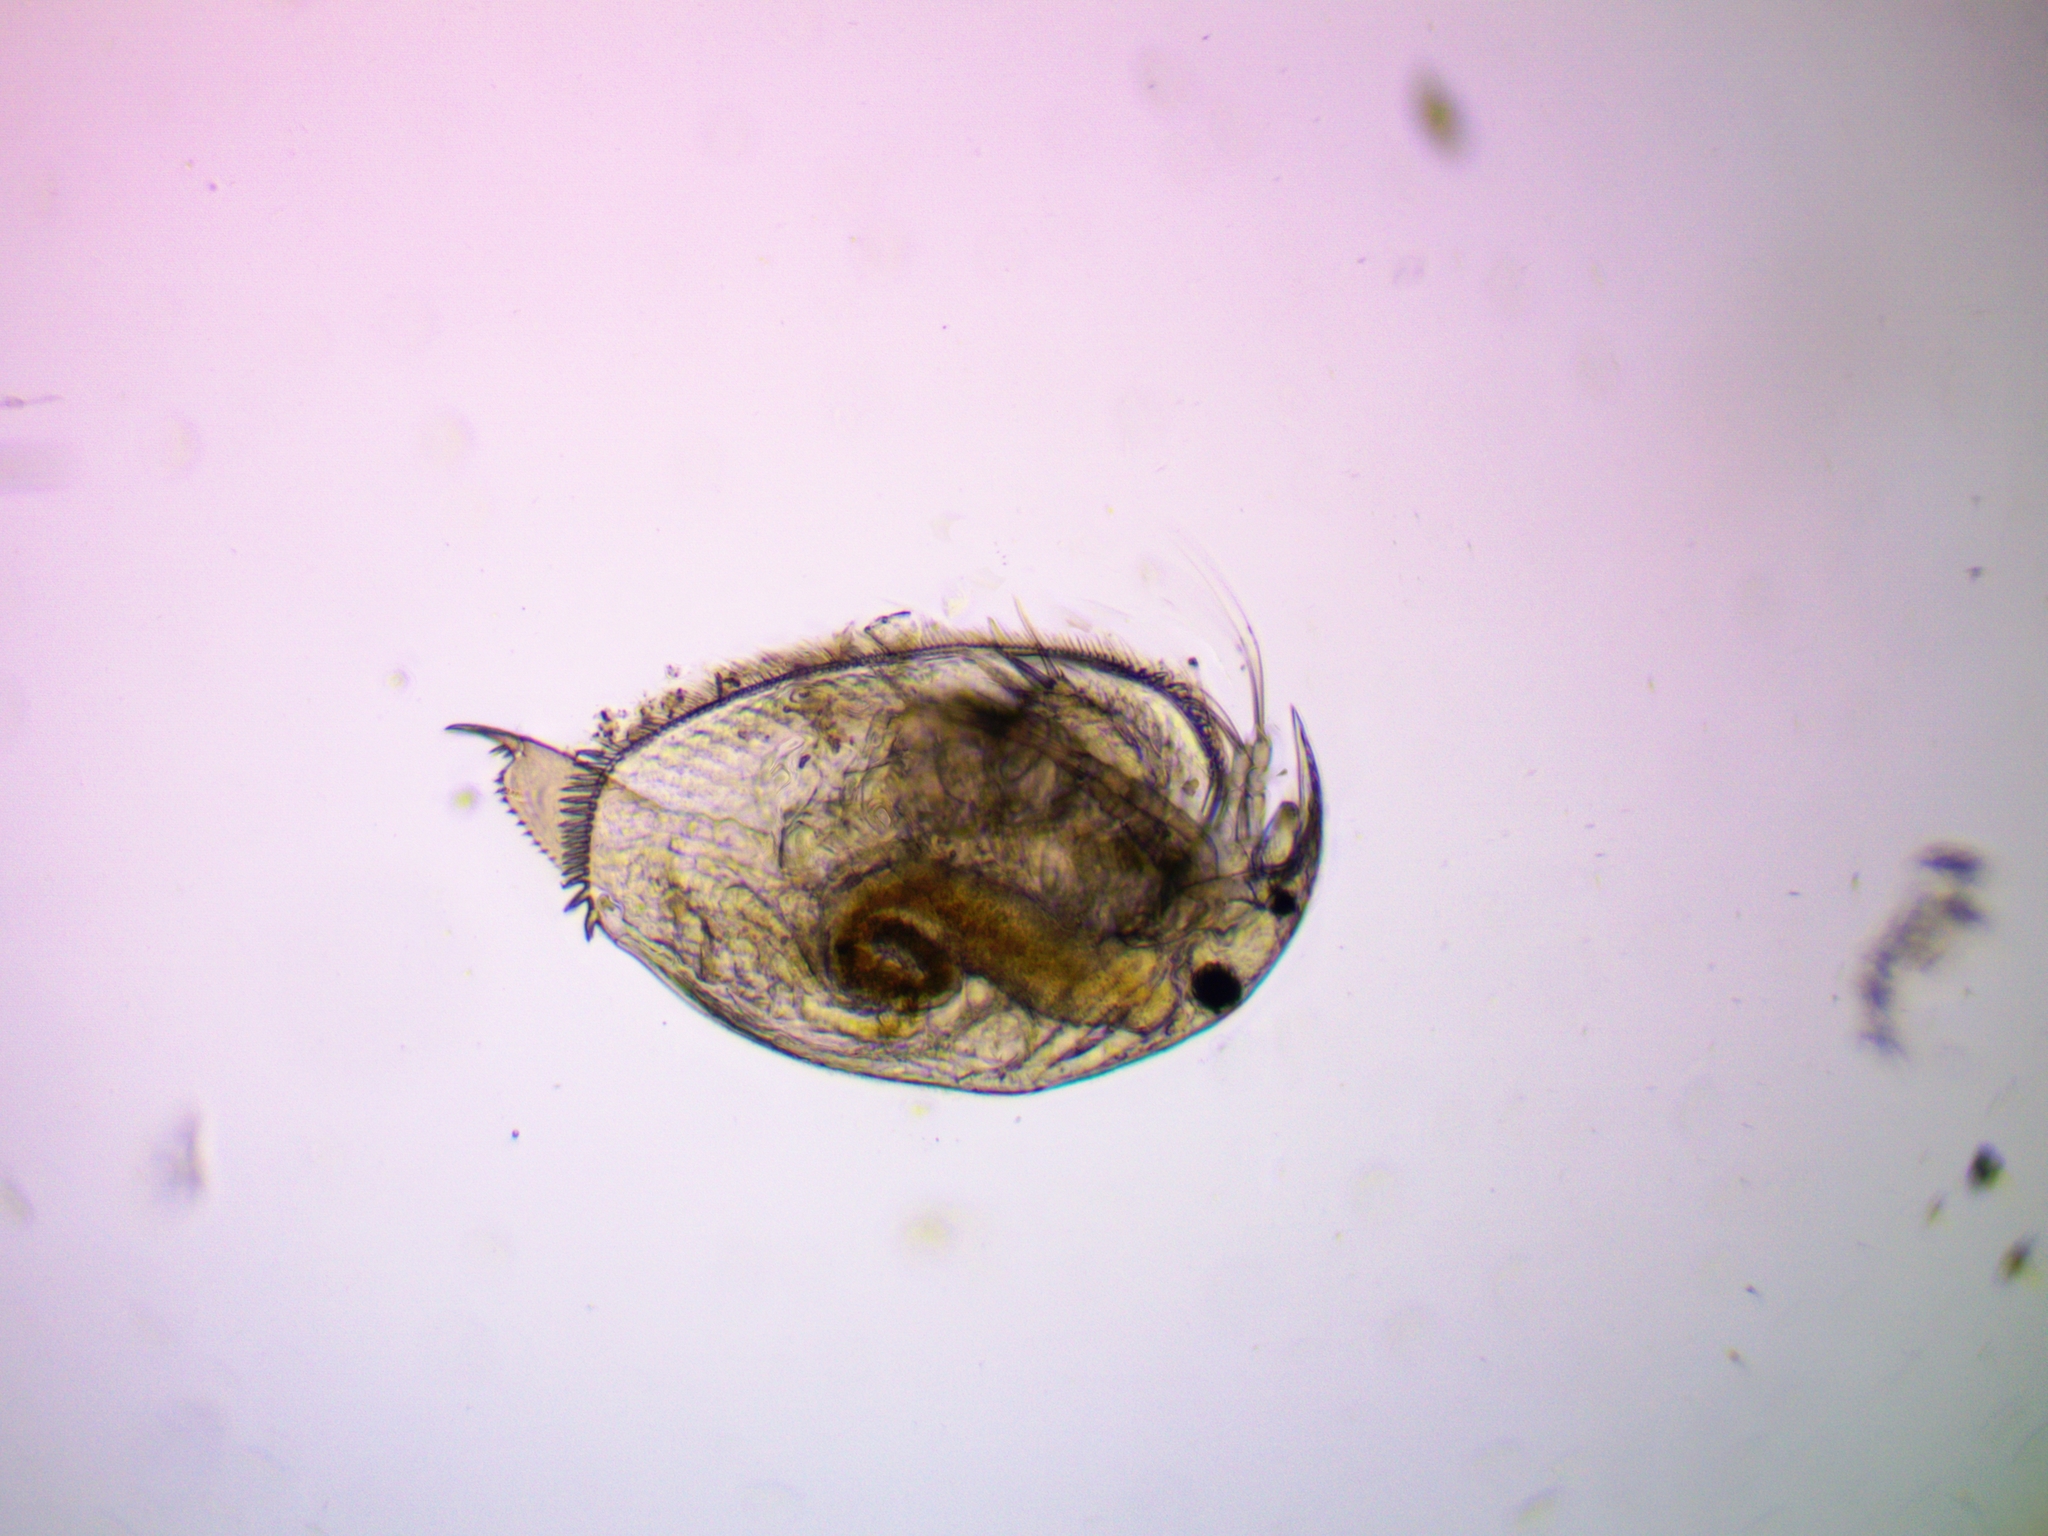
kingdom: Animalia
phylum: Arthropoda
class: Branchiopoda
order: Diplostraca
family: Chydoridae
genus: Peracantha
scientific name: Peracantha truncata
